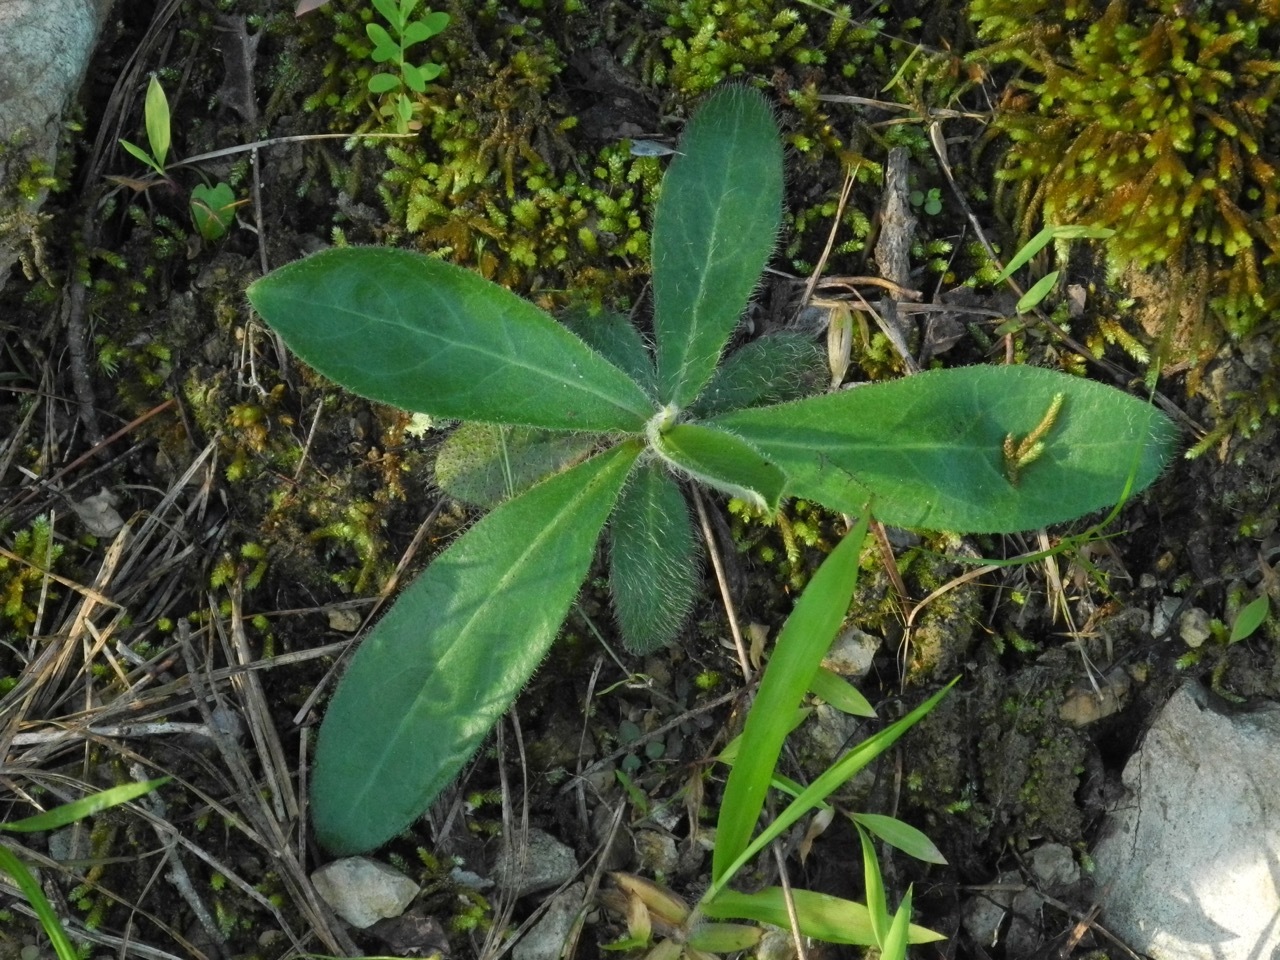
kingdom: Plantae
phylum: Tracheophyta
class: Magnoliopsida
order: Asterales
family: Asteraceae
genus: Hieracium
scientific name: Hieracium gronovii
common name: Beaked hawkweed
